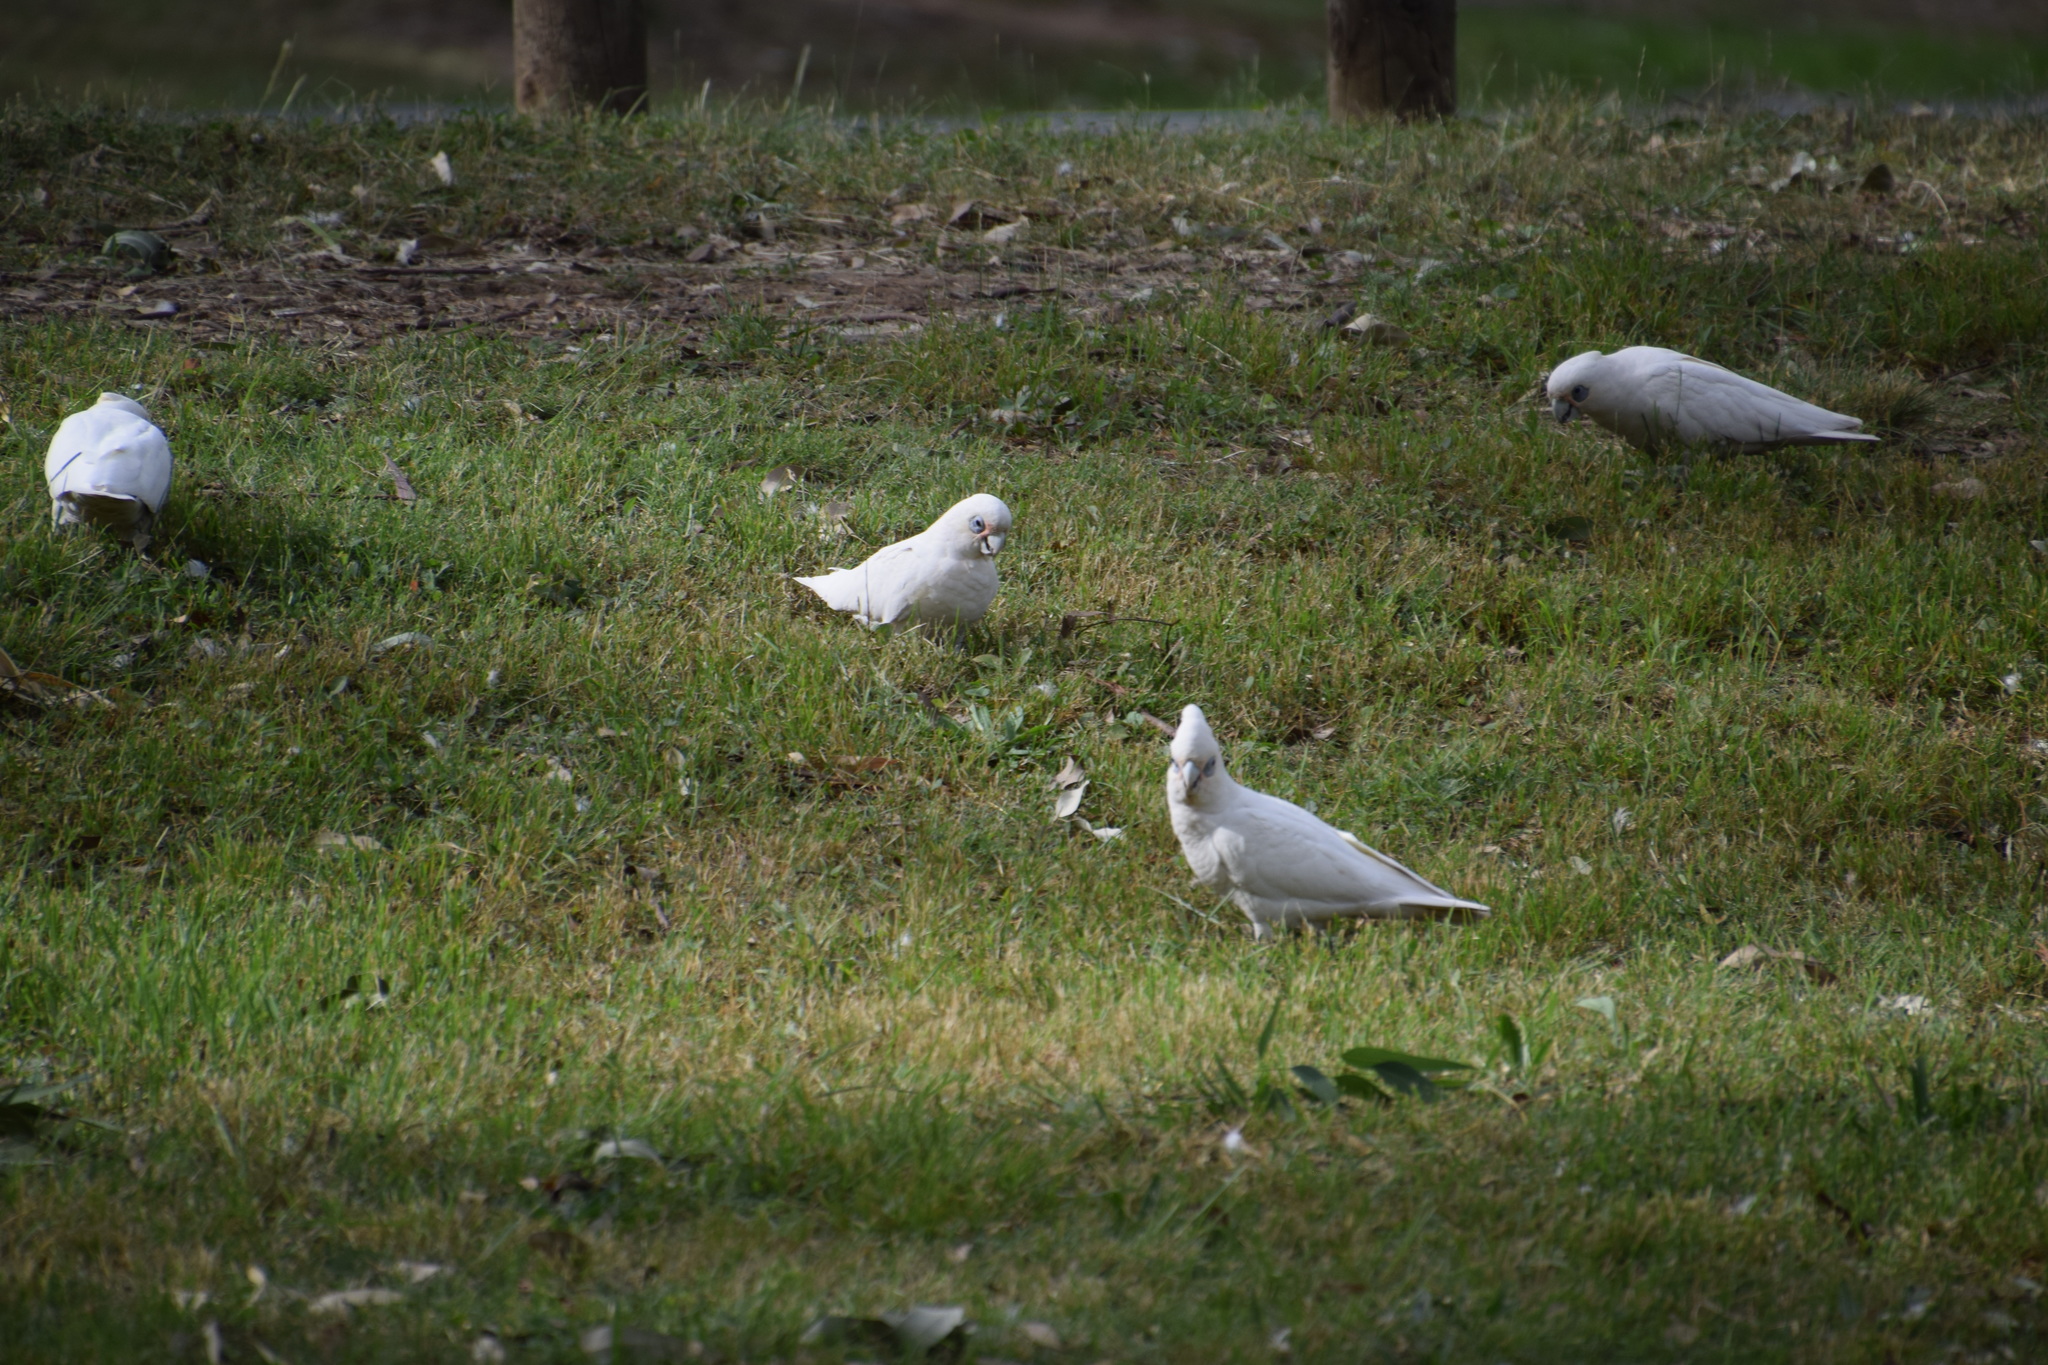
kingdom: Animalia
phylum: Chordata
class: Aves
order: Psittaciformes
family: Psittacidae
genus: Cacatua
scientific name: Cacatua sanguinea
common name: Little corella
